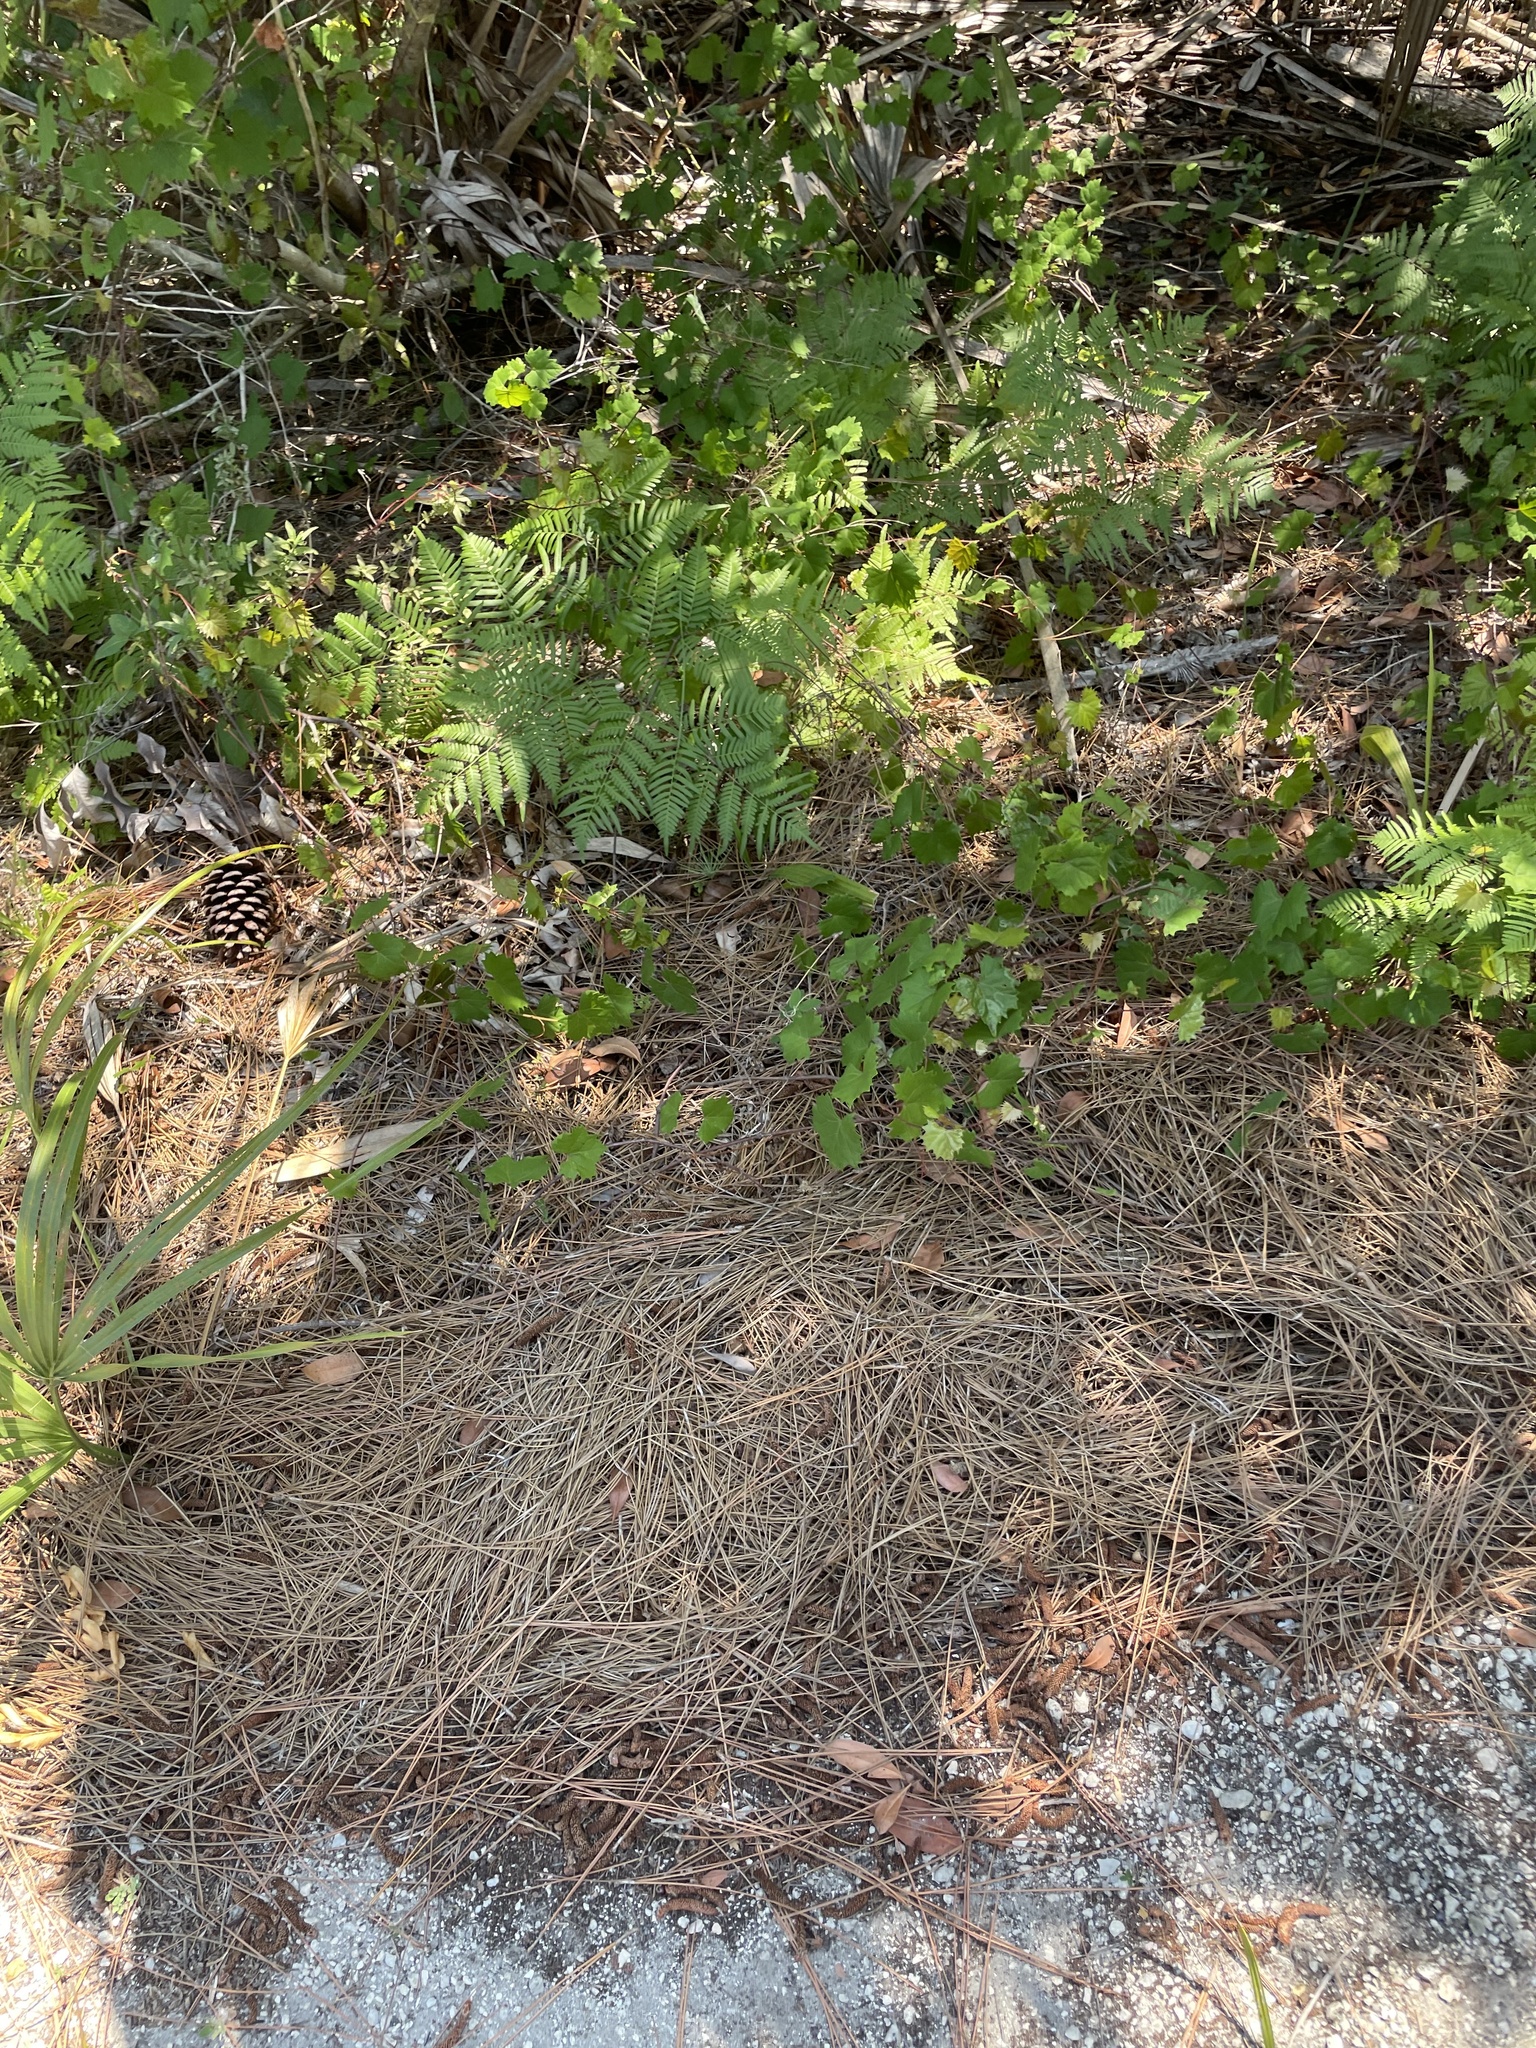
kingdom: Plantae
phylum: Tracheophyta
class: Magnoliopsida
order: Vitales
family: Vitaceae
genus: Vitis
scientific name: Vitis rotundifolia
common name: Muscadine grape
